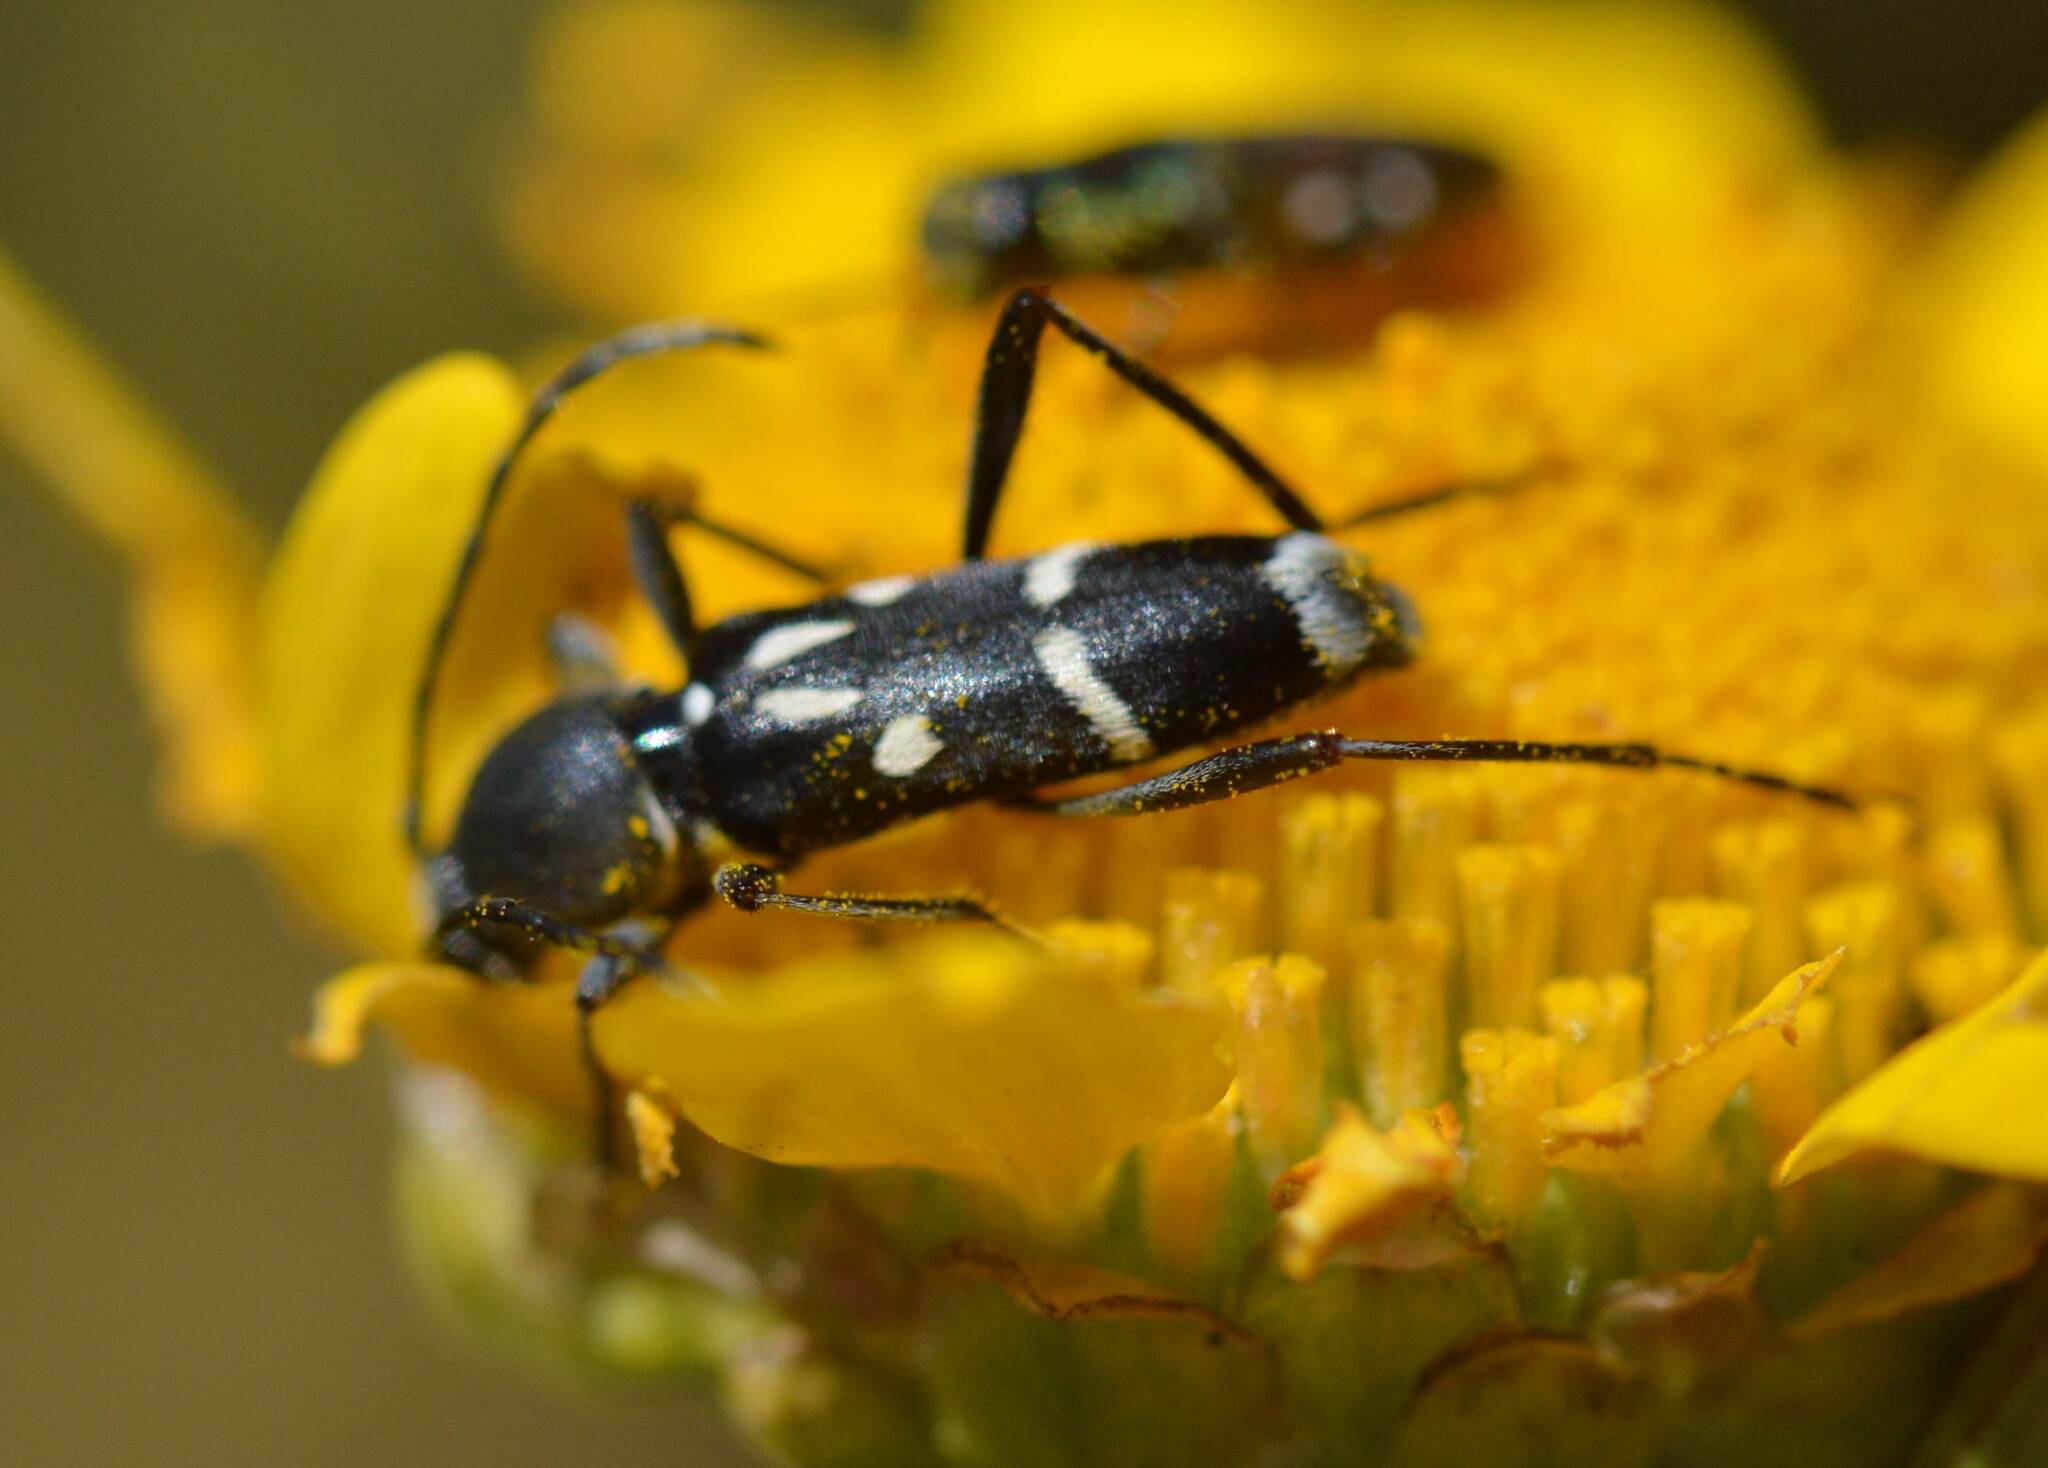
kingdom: Animalia
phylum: Arthropoda
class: Insecta
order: Coleoptera
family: Cerambycidae
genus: Chlorophorus
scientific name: Chlorophorus pelleteri
